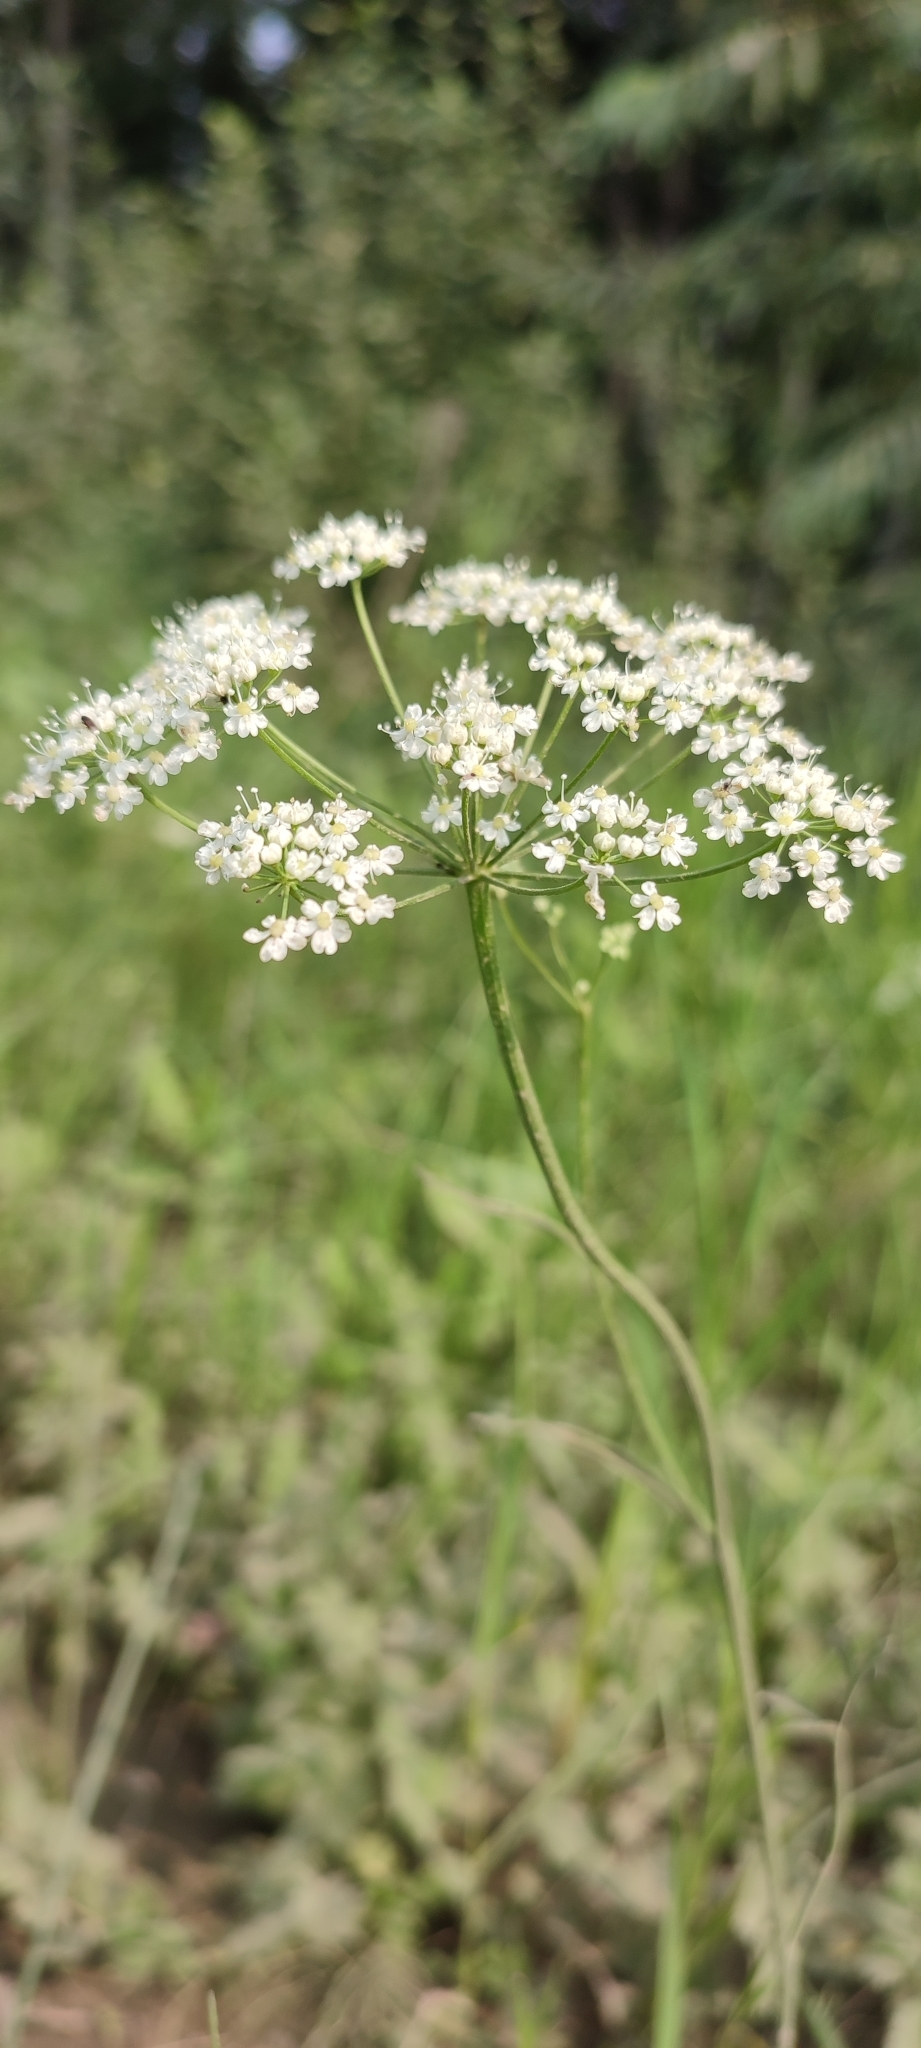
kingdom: Plantae
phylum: Tracheophyta
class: Magnoliopsida
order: Apiales
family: Apiaceae
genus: Pimpinella
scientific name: Pimpinella saxifraga
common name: Burnet-saxifrage
